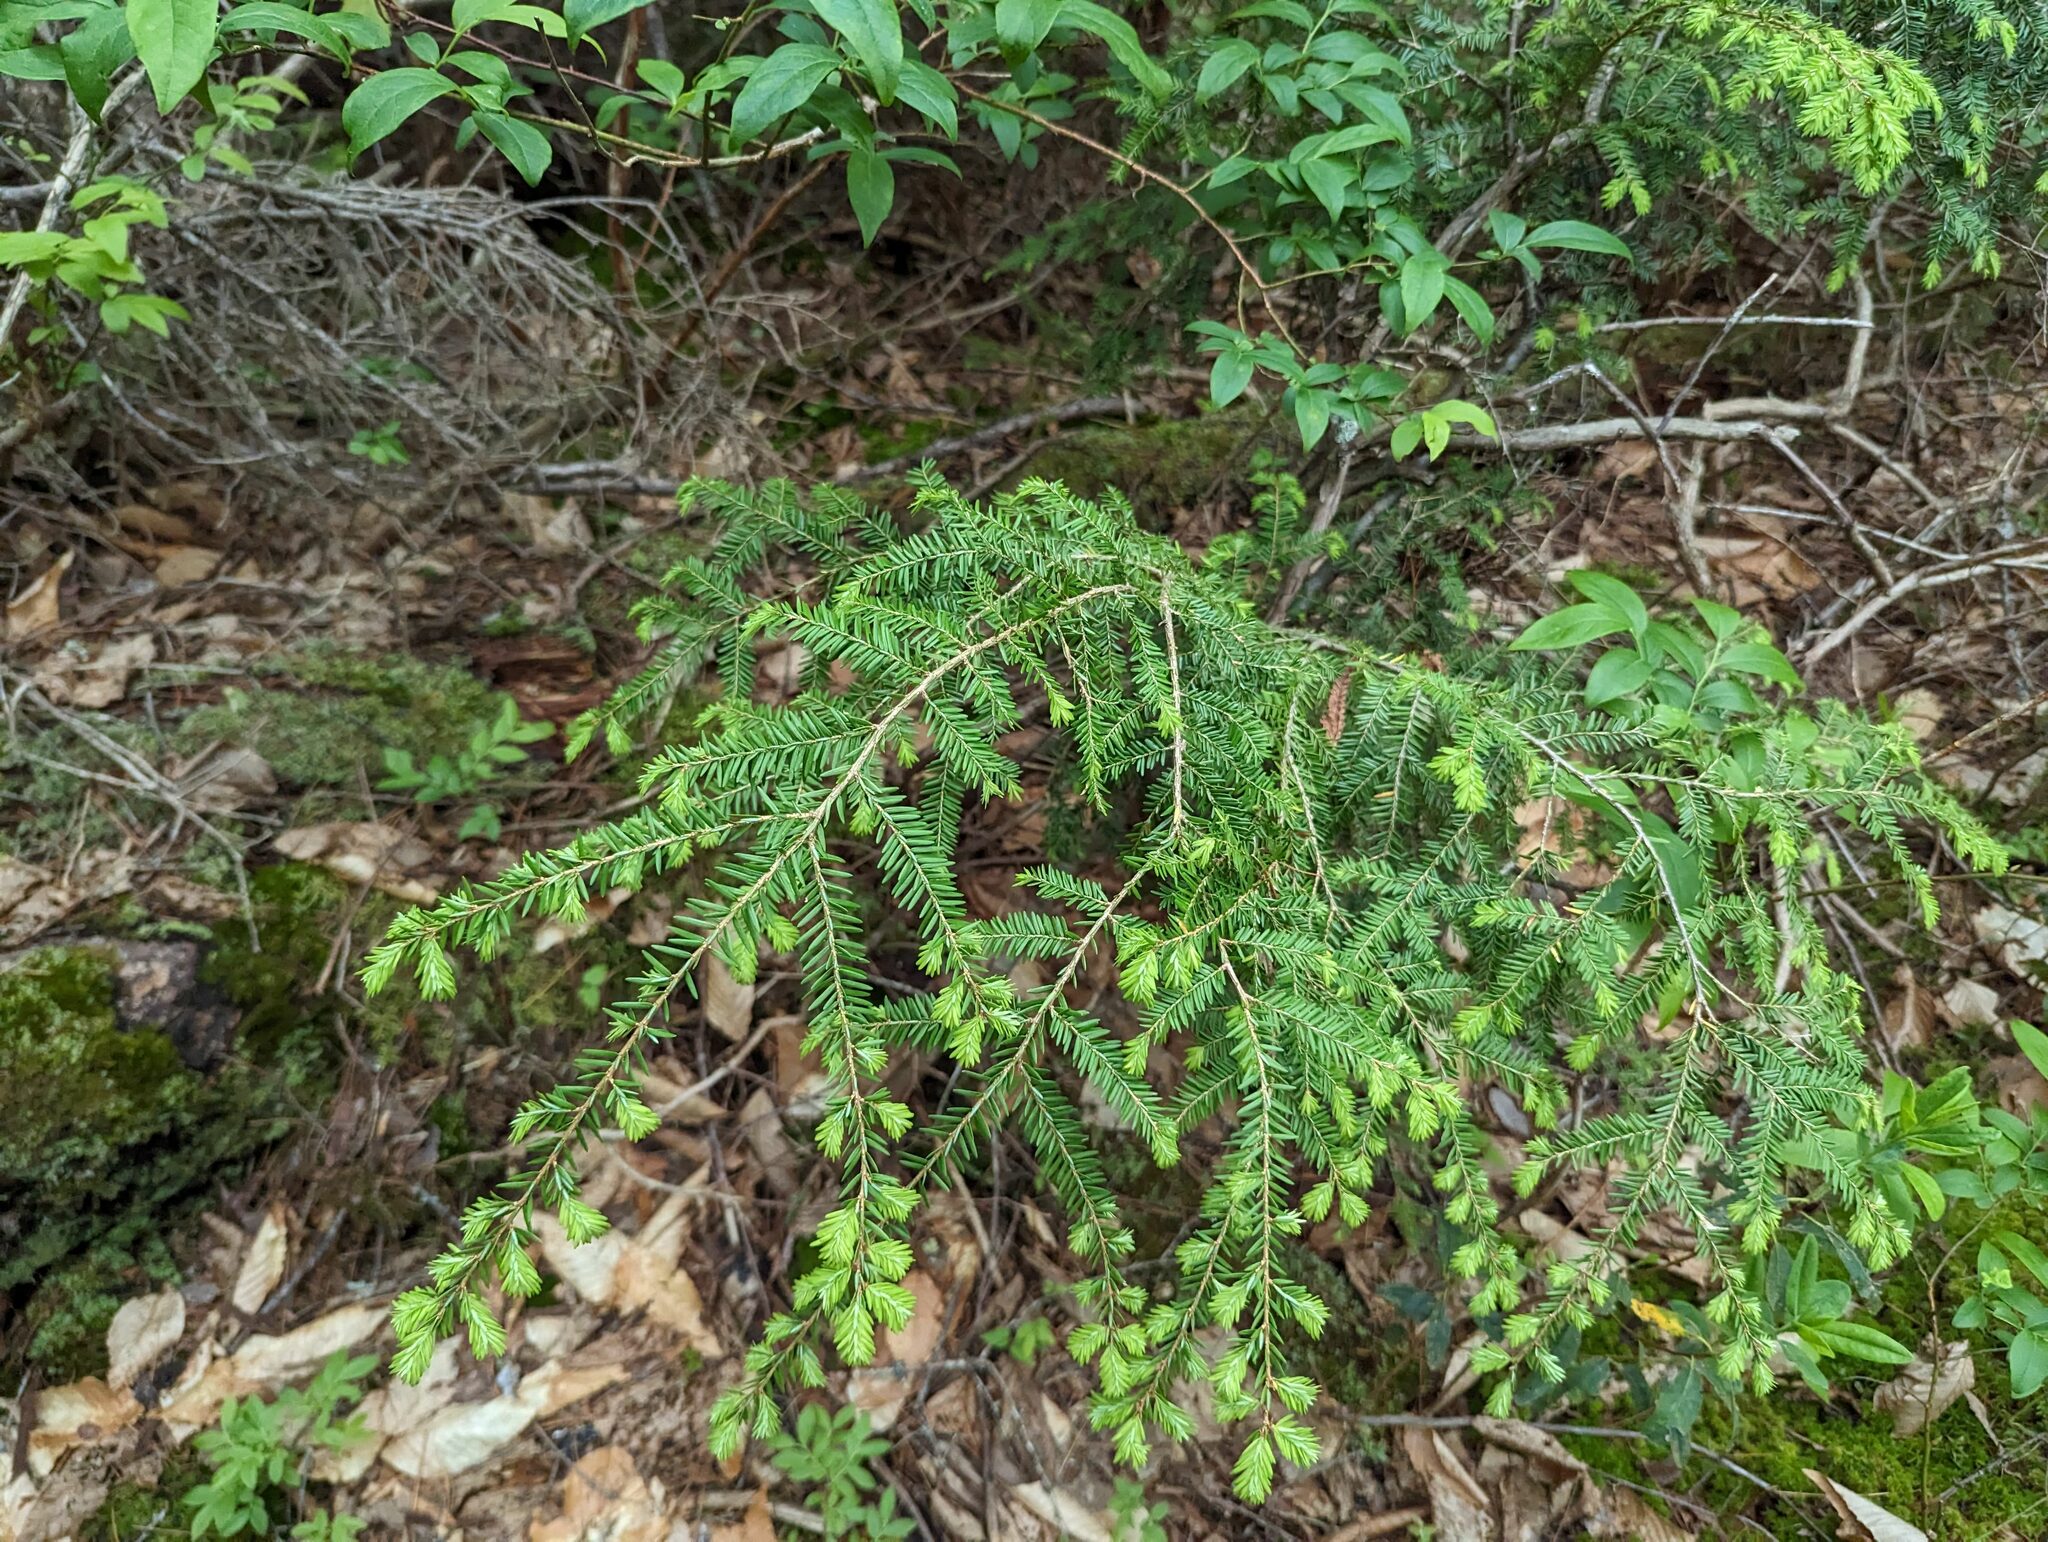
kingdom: Plantae
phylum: Tracheophyta
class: Pinopsida
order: Pinales
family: Pinaceae
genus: Tsuga
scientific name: Tsuga canadensis
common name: Eastern hemlock
